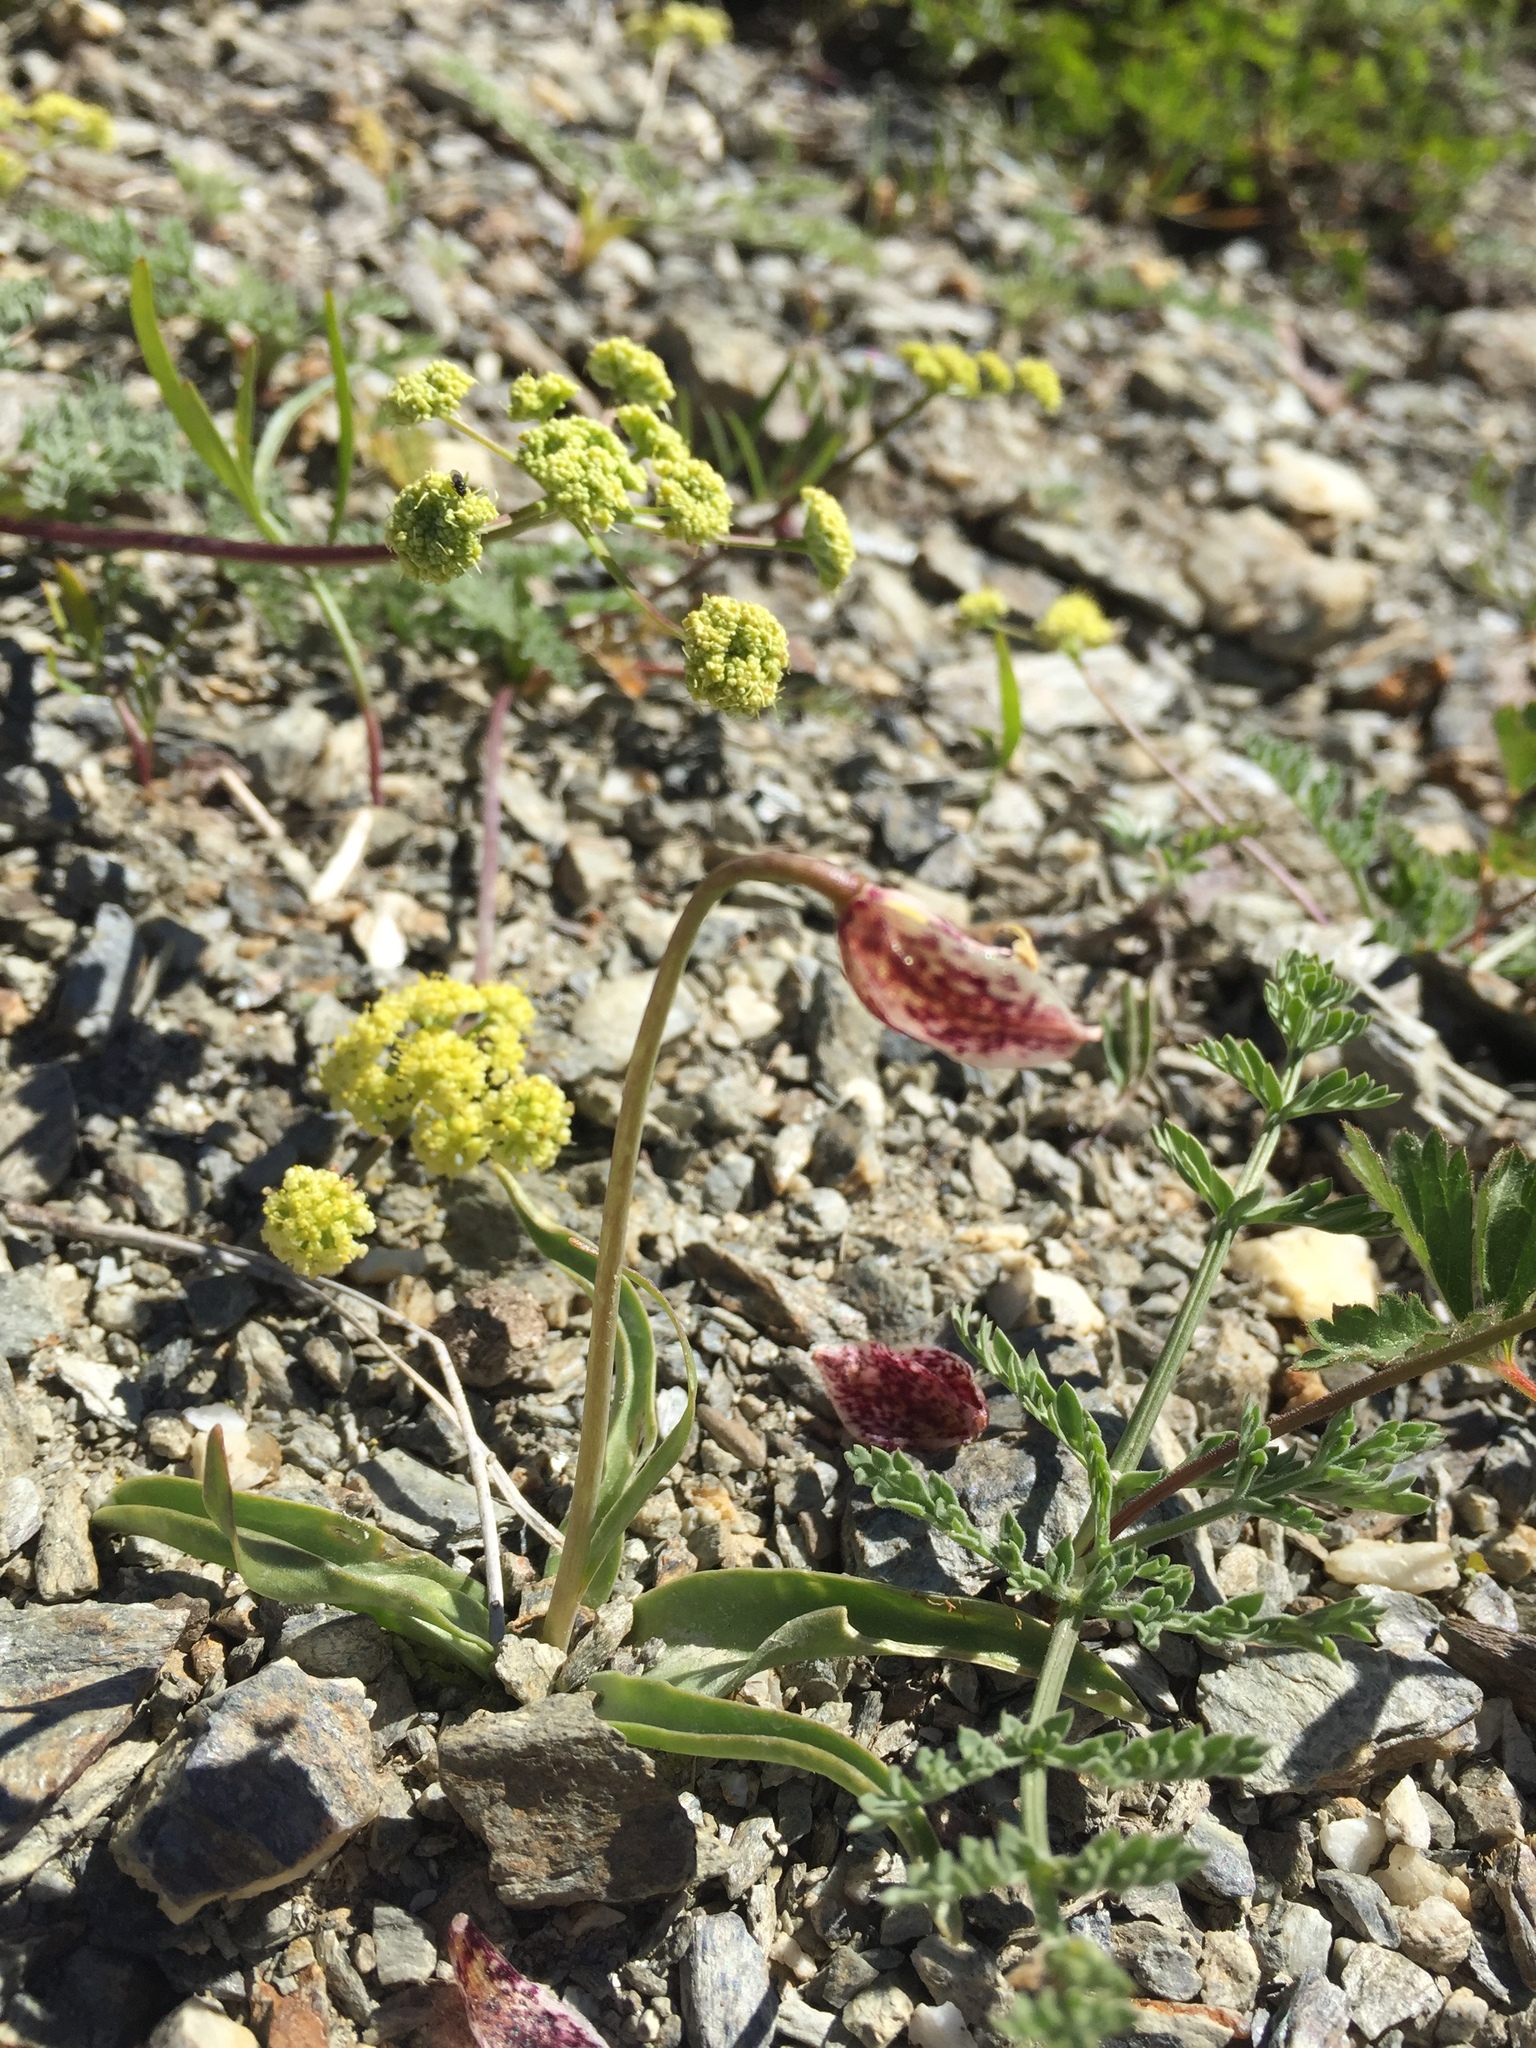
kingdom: Plantae
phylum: Tracheophyta
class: Liliopsida
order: Liliales
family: Liliaceae
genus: Fritillaria
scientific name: Fritillaria purdyi
